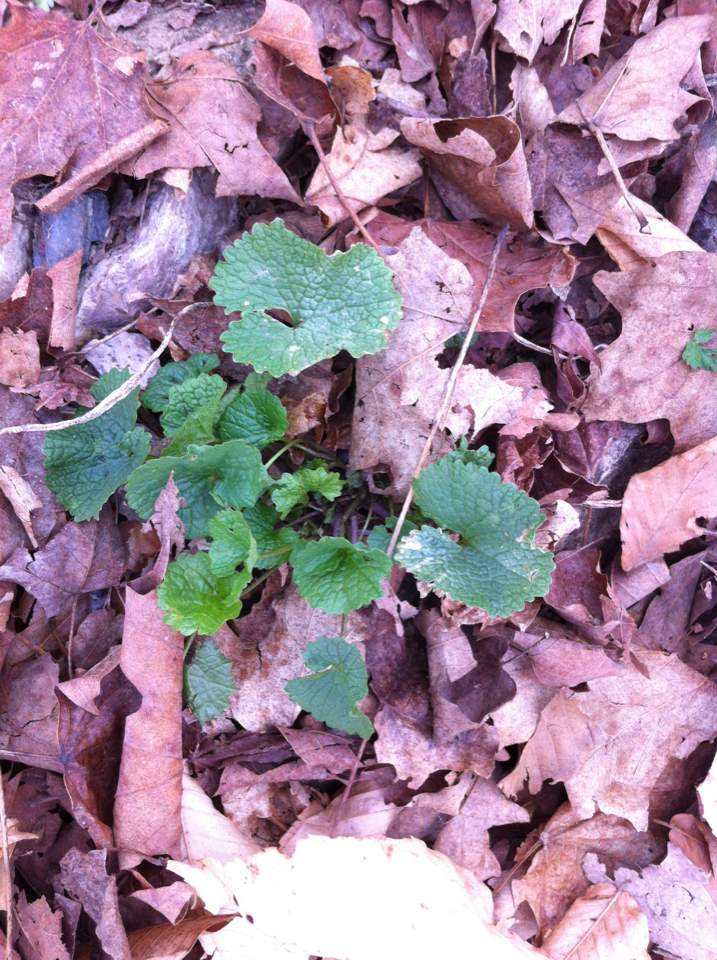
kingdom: Plantae
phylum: Tracheophyta
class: Magnoliopsida
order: Brassicales
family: Brassicaceae
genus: Alliaria
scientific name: Alliaria petiolata
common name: Garlic mustard
